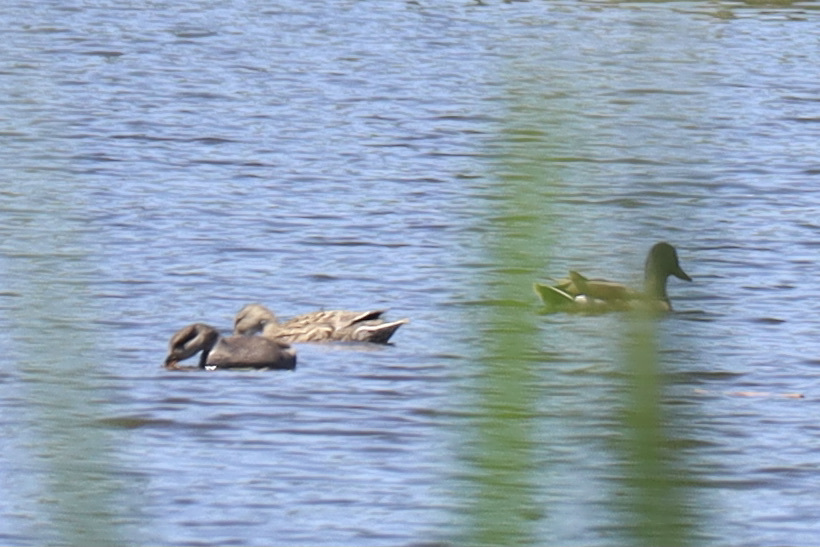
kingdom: Animalia
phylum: Chordata
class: Aves
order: Anseriformes
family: Anatidae
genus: Mareca
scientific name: Mareca strepera
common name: Gadwall
